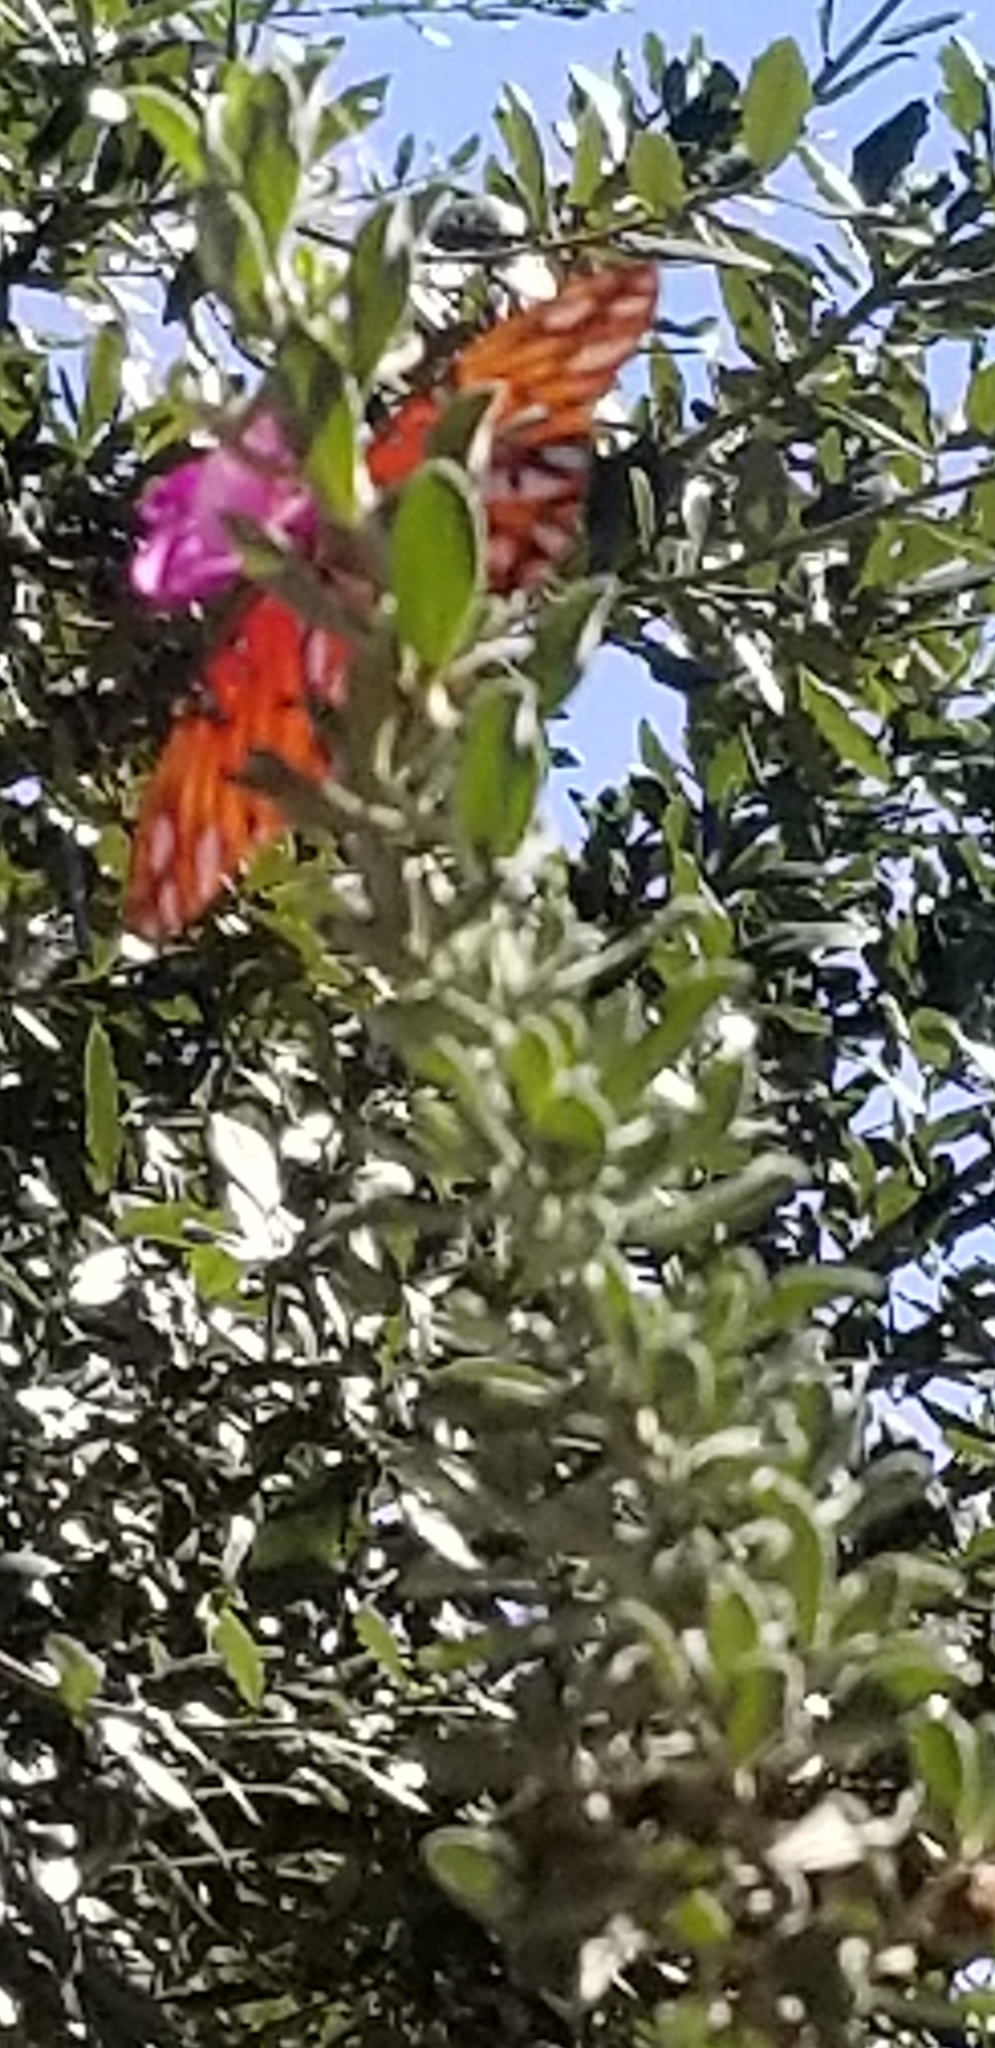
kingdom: Animalia
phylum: Arthropoda
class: Insecta
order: Lepidoptera
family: Nymphalidae
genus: Dione
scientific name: Dione vanillae
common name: Gulf fritillary
